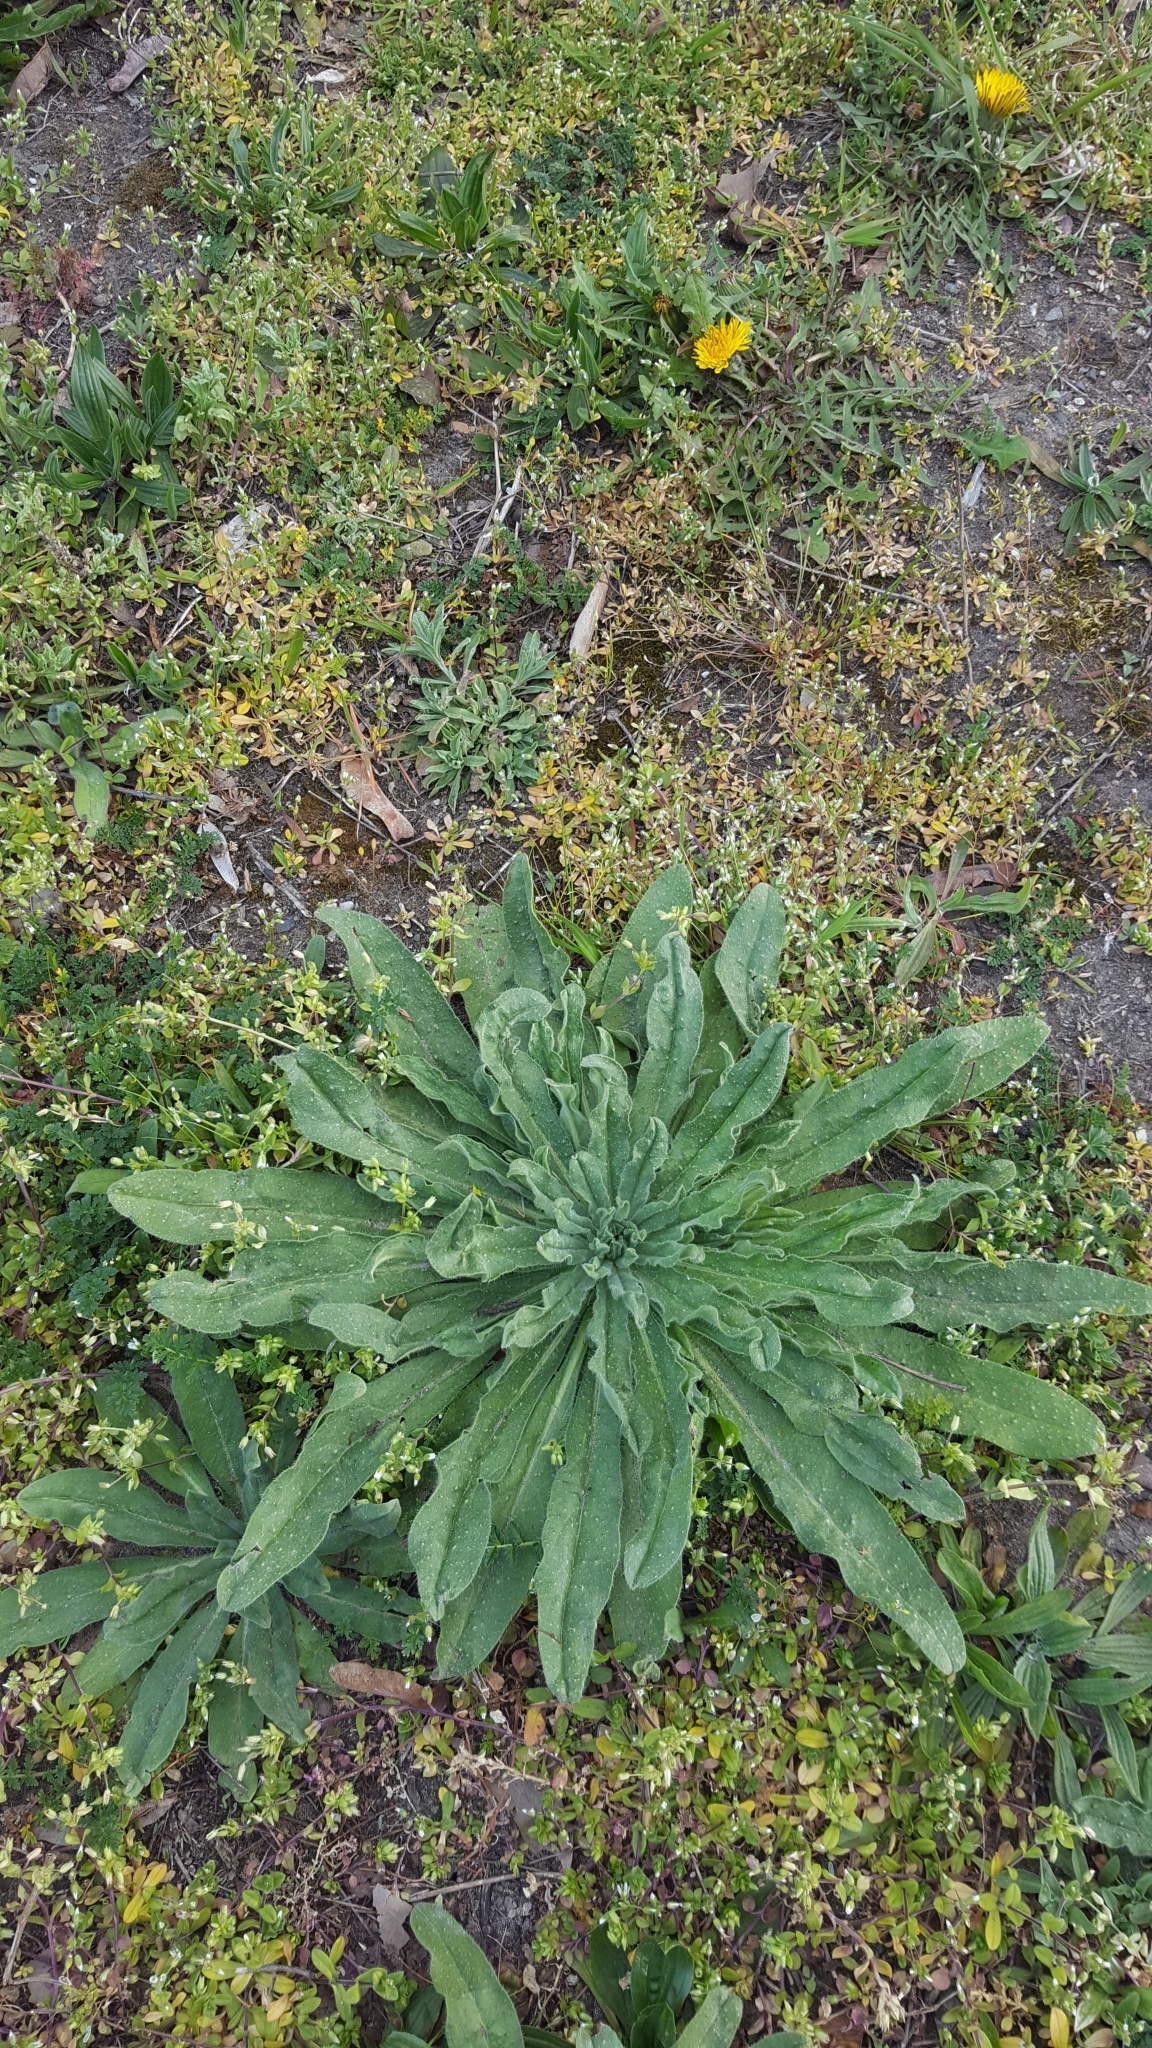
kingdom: Plantae
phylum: Tracheophyta
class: Magnoliopsida
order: Boraginales
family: Boraginaceae
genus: Echium
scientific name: Echium vulgare
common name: Common viper's bugloss
